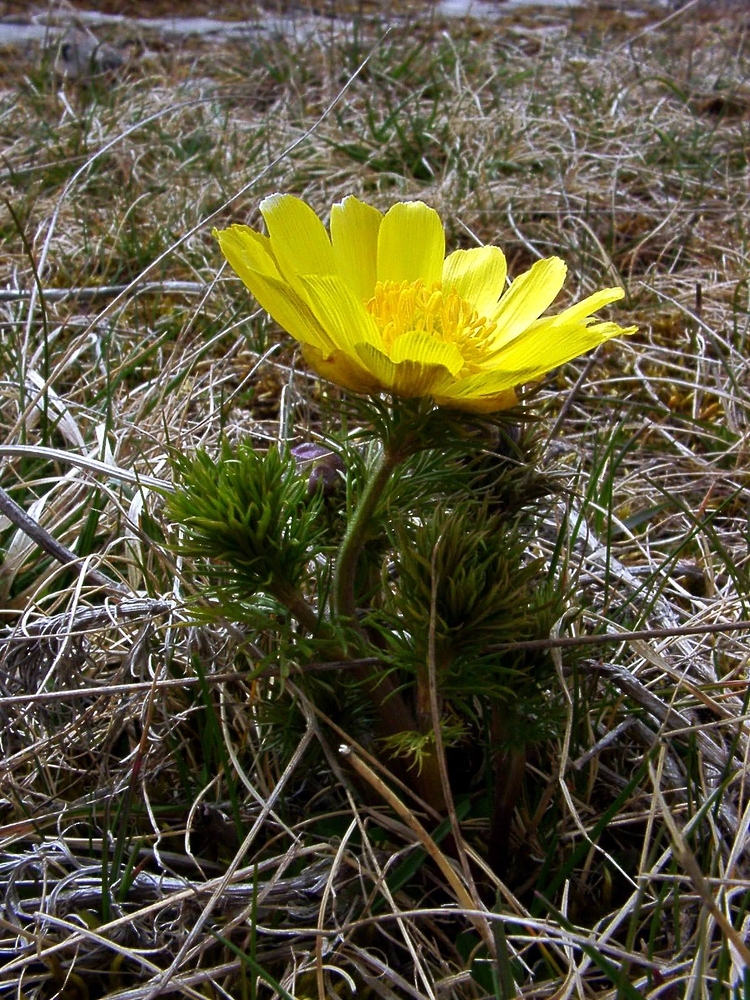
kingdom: Plantae
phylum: Tracheophyta
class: Magnoliopsida
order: Ranunculales
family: Ranunculaceae
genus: Adonis
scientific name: Adonis vernalis
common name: Yellow pheasants-eye
